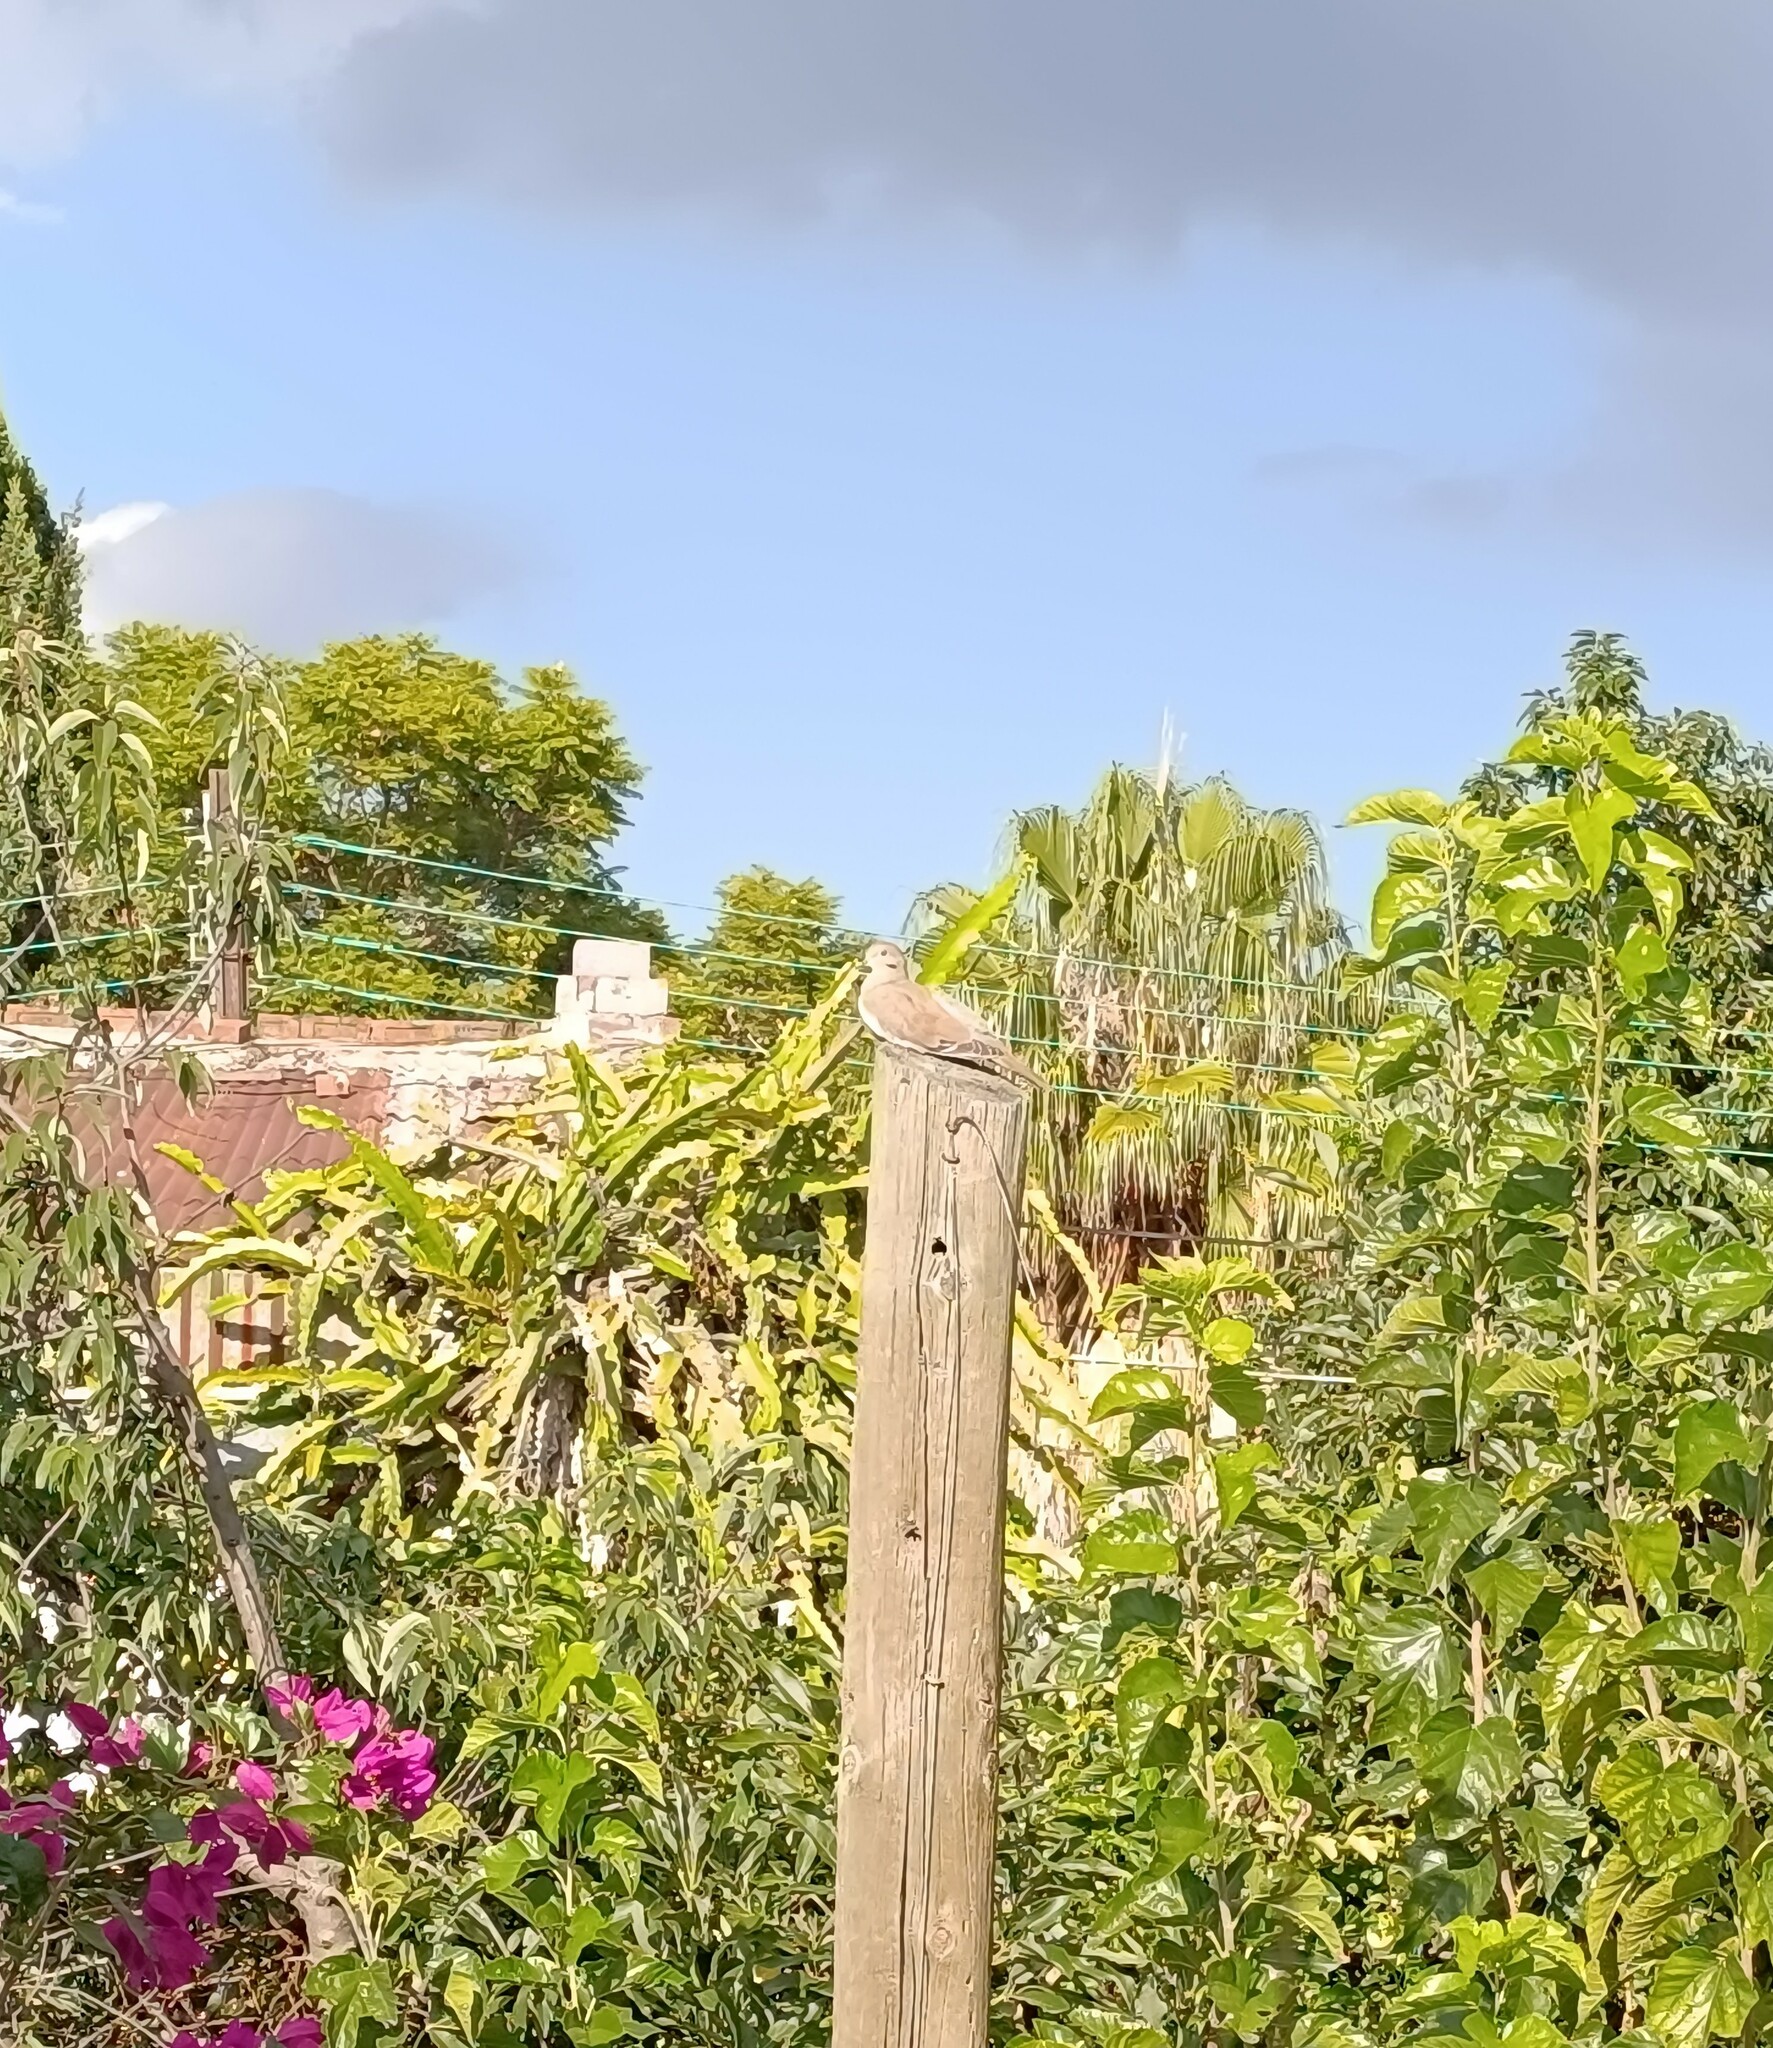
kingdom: Animalia
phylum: Chordata
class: Aves
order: Columbiformes
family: Columbidae
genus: Zenaida
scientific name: Zenaida asiatica
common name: White-winged dove
